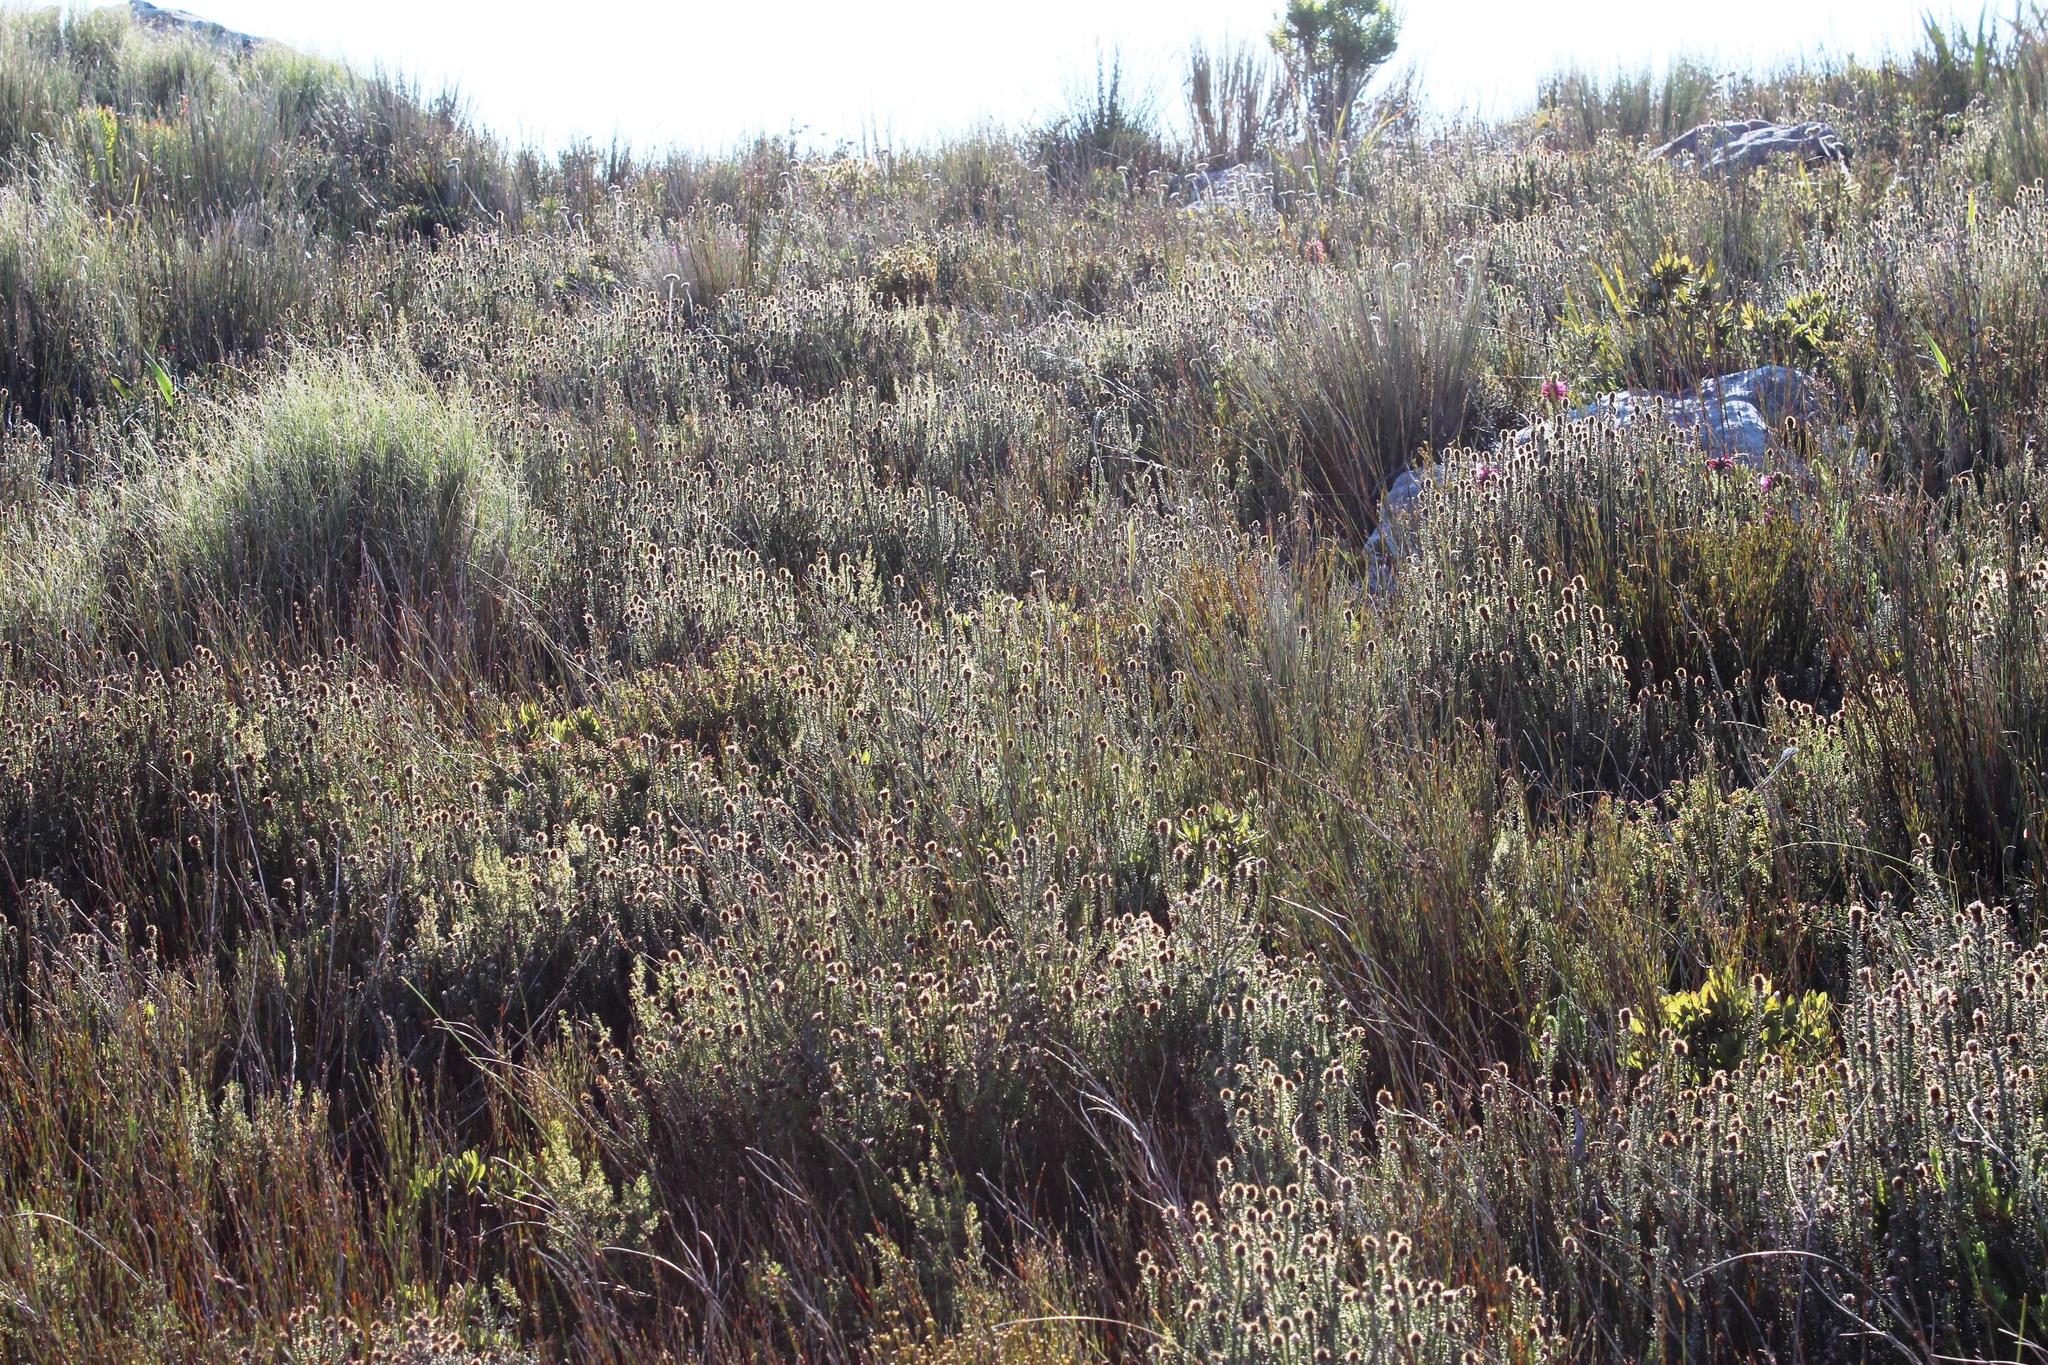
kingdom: Plantae
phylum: Tracheophyta
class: Magnoliopsida
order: Asterales
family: Asteraceae
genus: Seriphium
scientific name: Seriphium incanum
